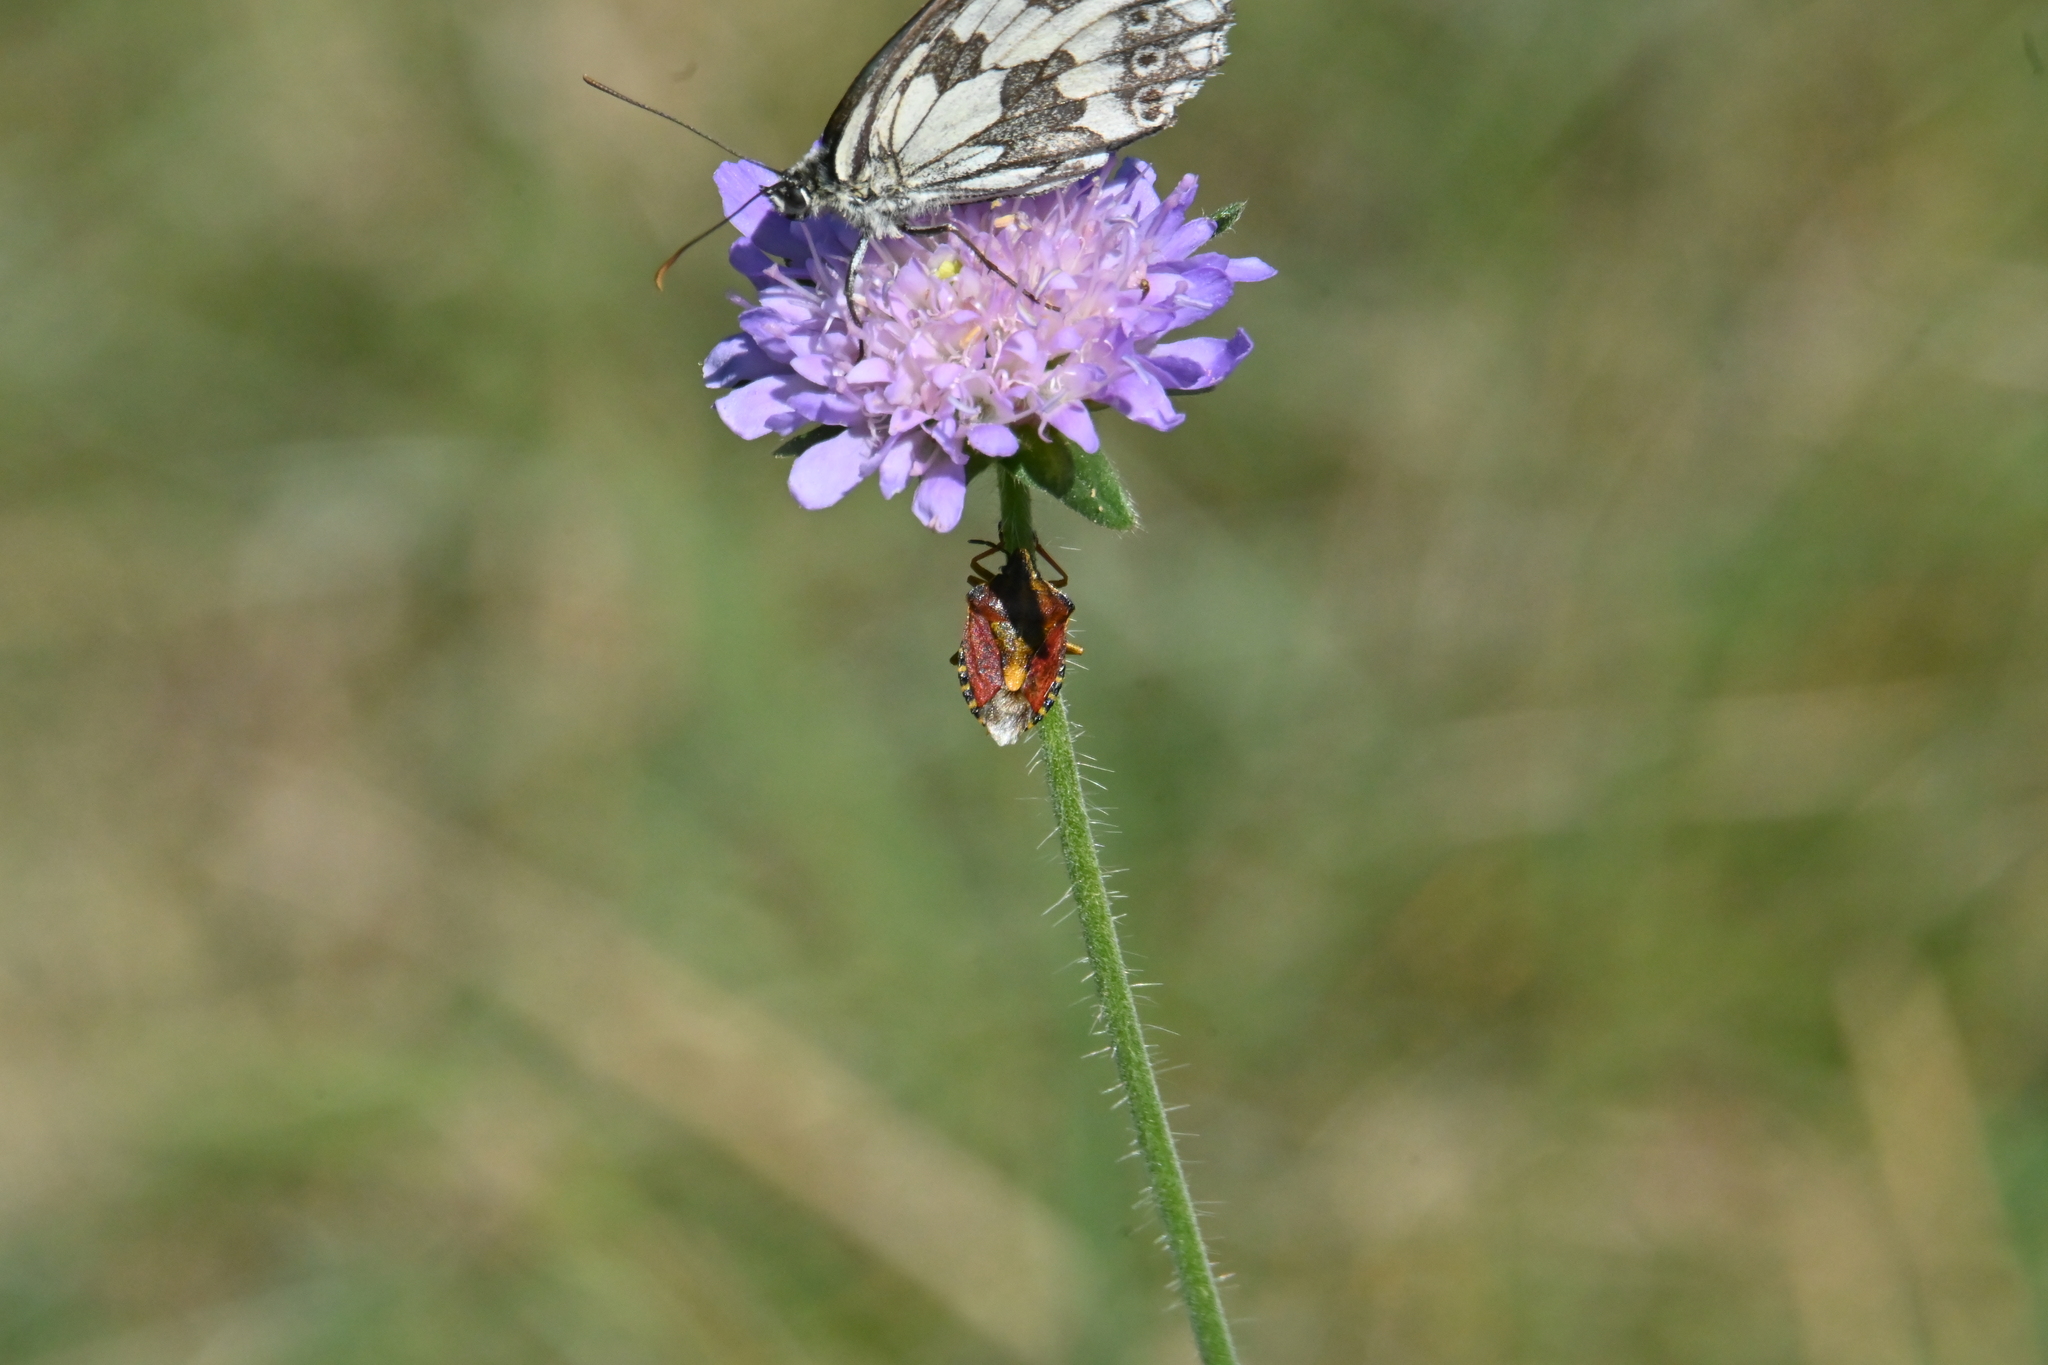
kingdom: Animalia
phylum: Arthropoda
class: Insecta
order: Hemiptera
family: Pentatomidae
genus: Carpocoris
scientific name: Carpocoris purpureipennis
